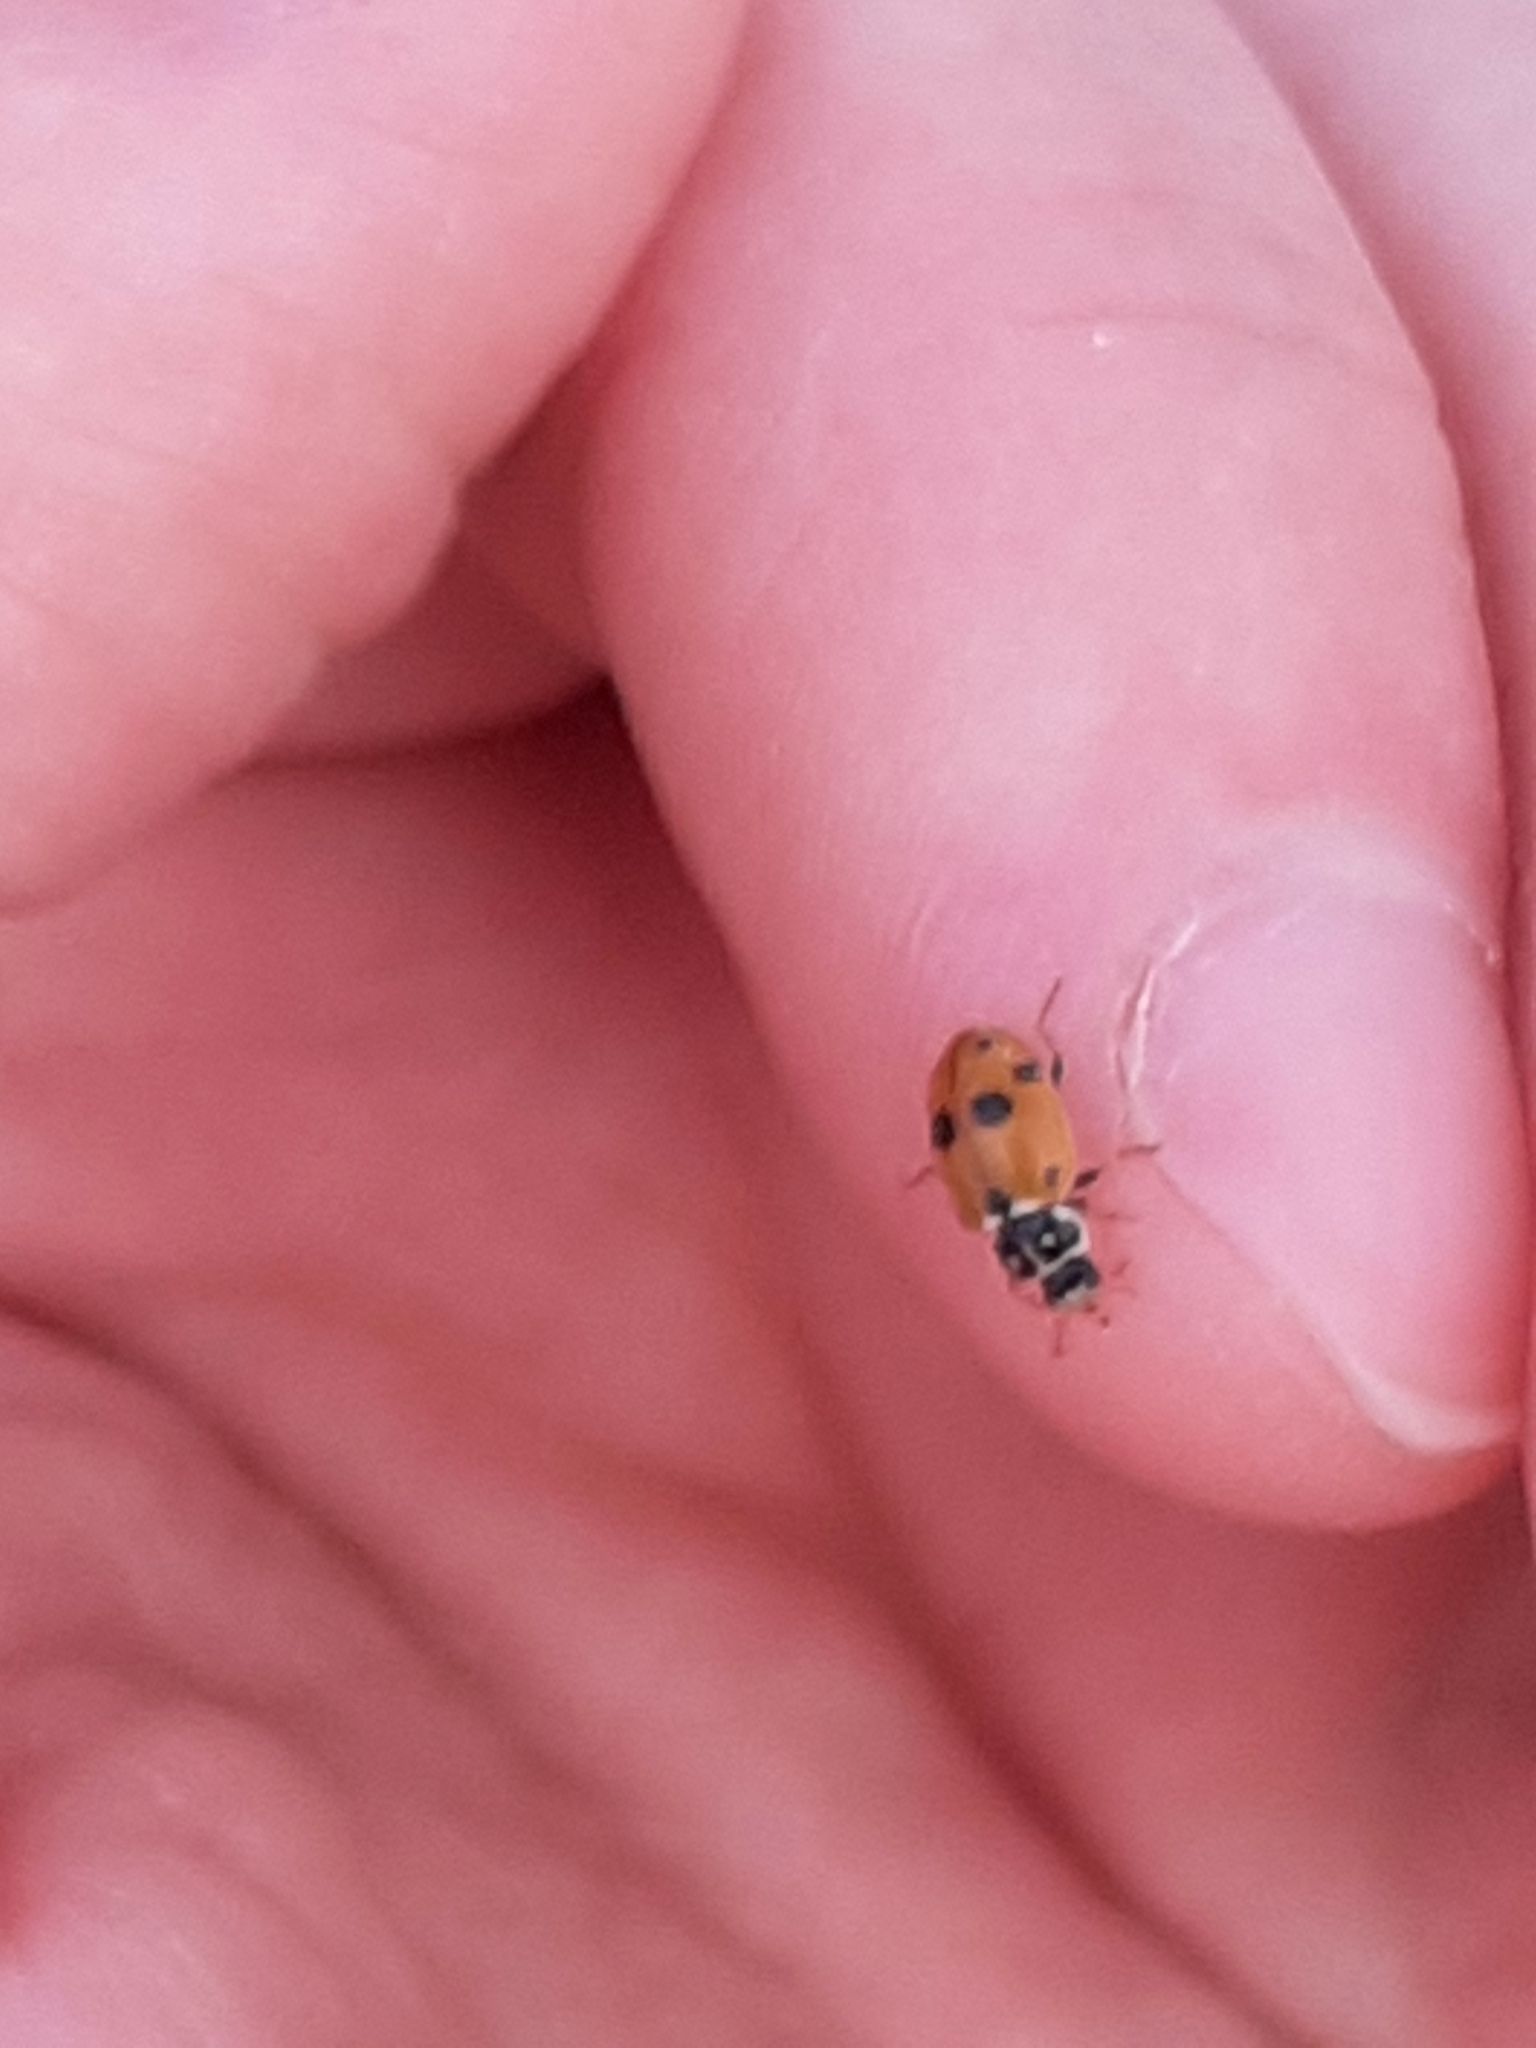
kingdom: Animalia
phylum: Arthropoda
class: Insecta
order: Coleoptera
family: Coccinellidae
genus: Hippodamia
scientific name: Hippodamia variegata
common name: Ladybird beetle
